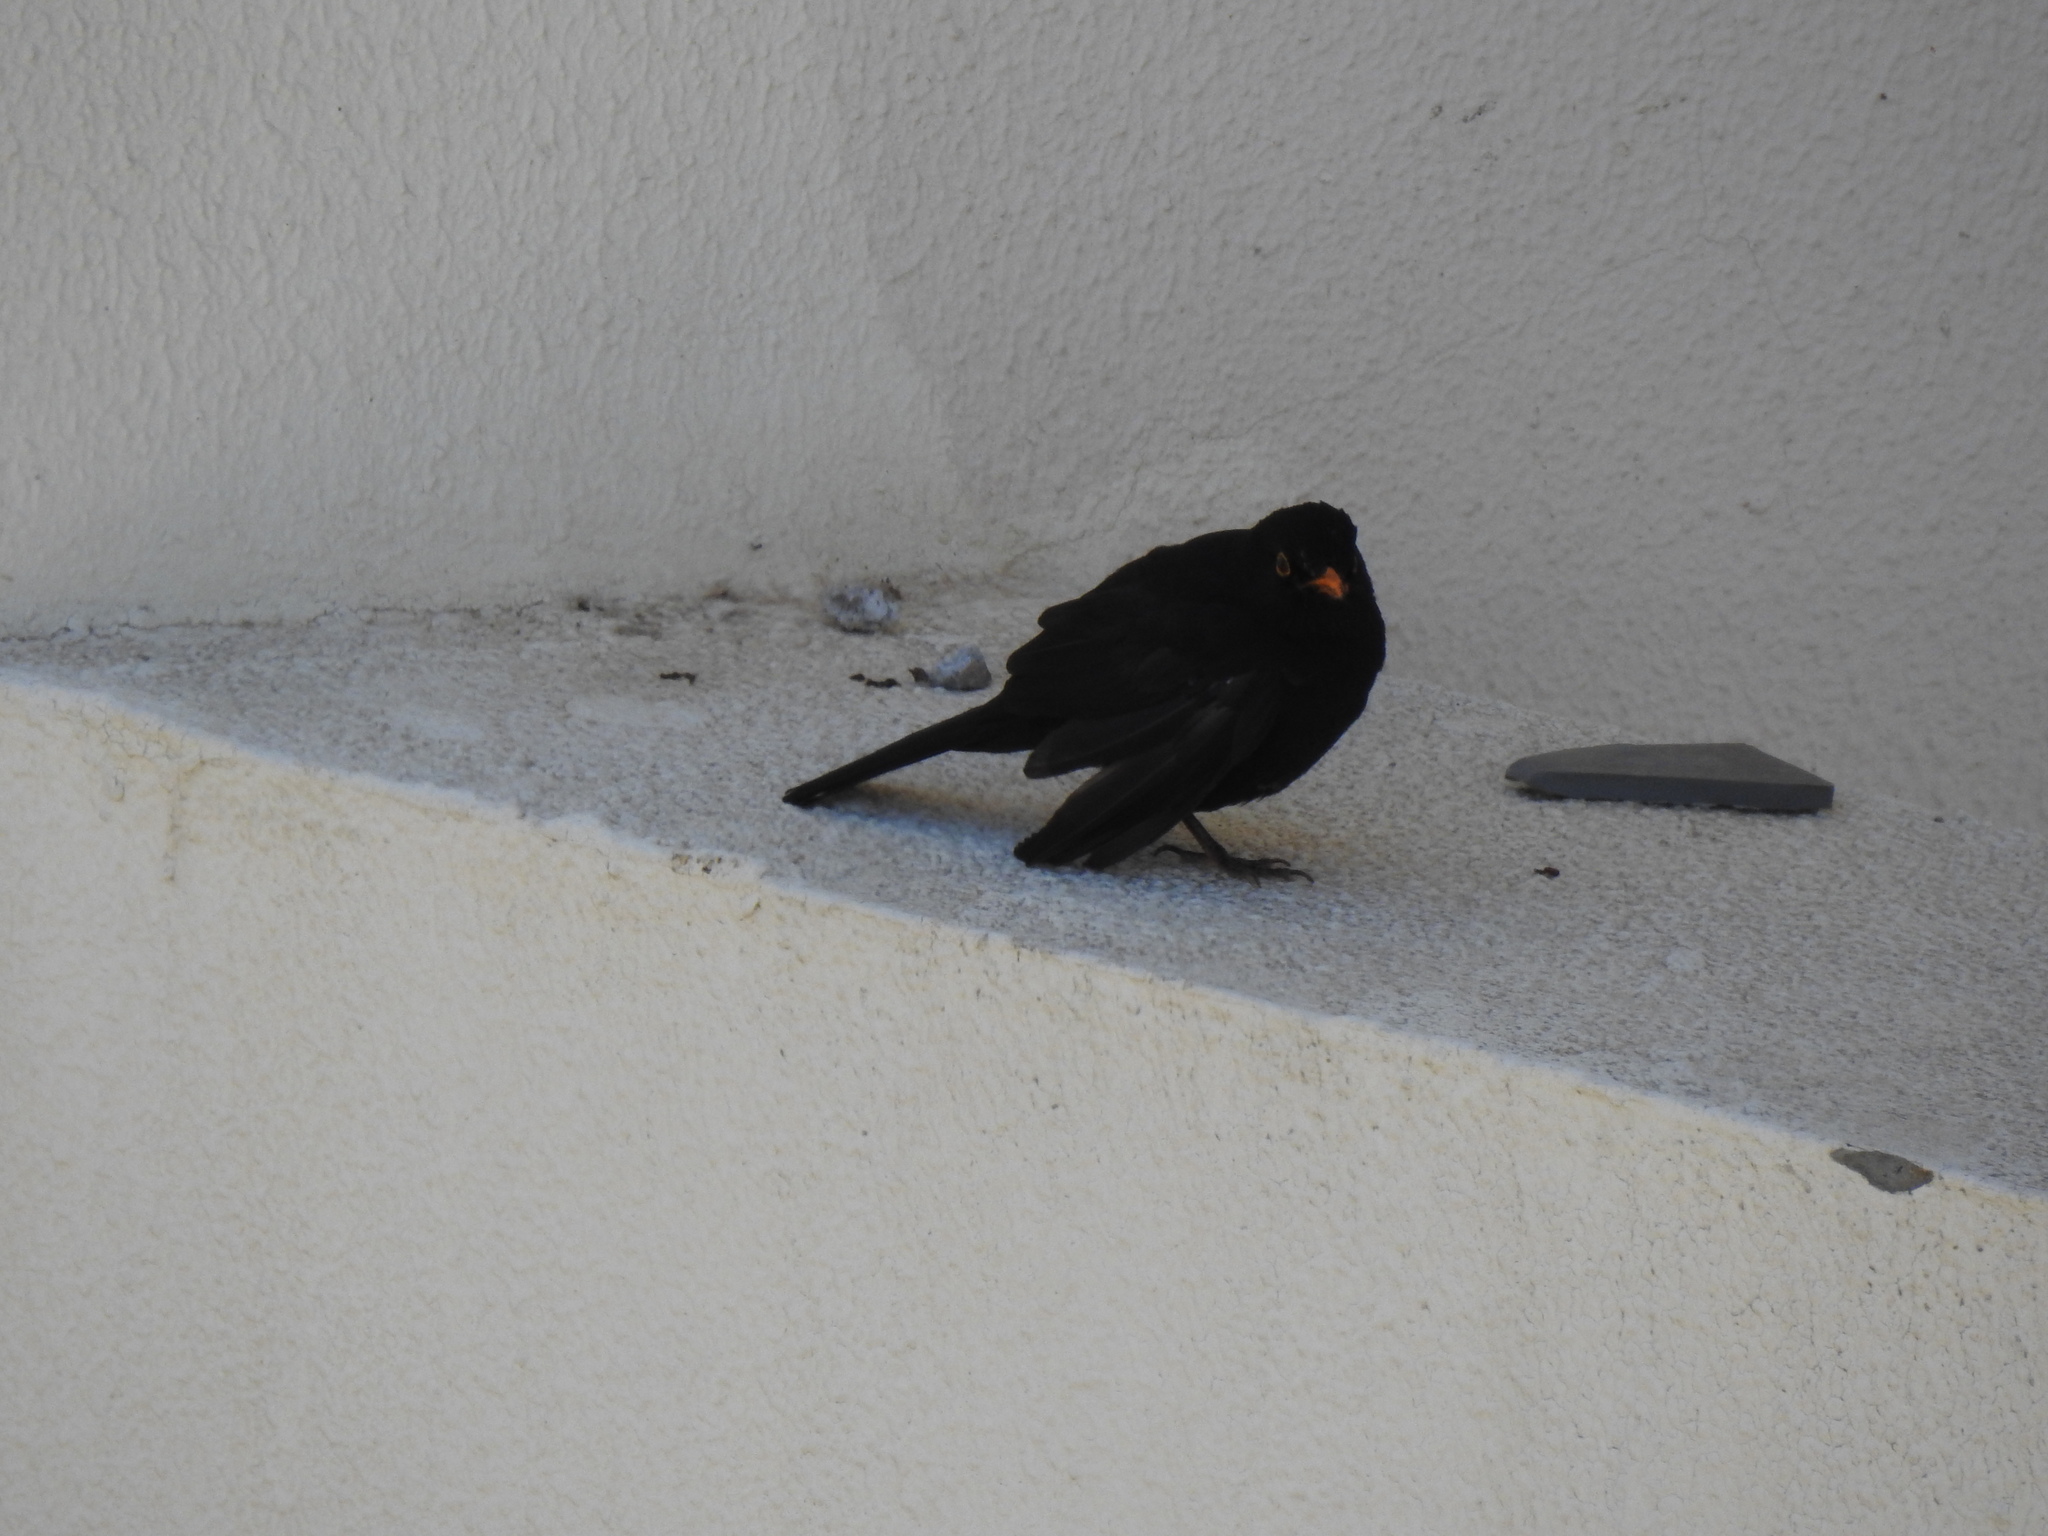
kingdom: Animalia
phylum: Chordata
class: Aves
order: Passeriformes
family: Turdidae
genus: Turdus
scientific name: Turdus merula
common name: Common blackbird
